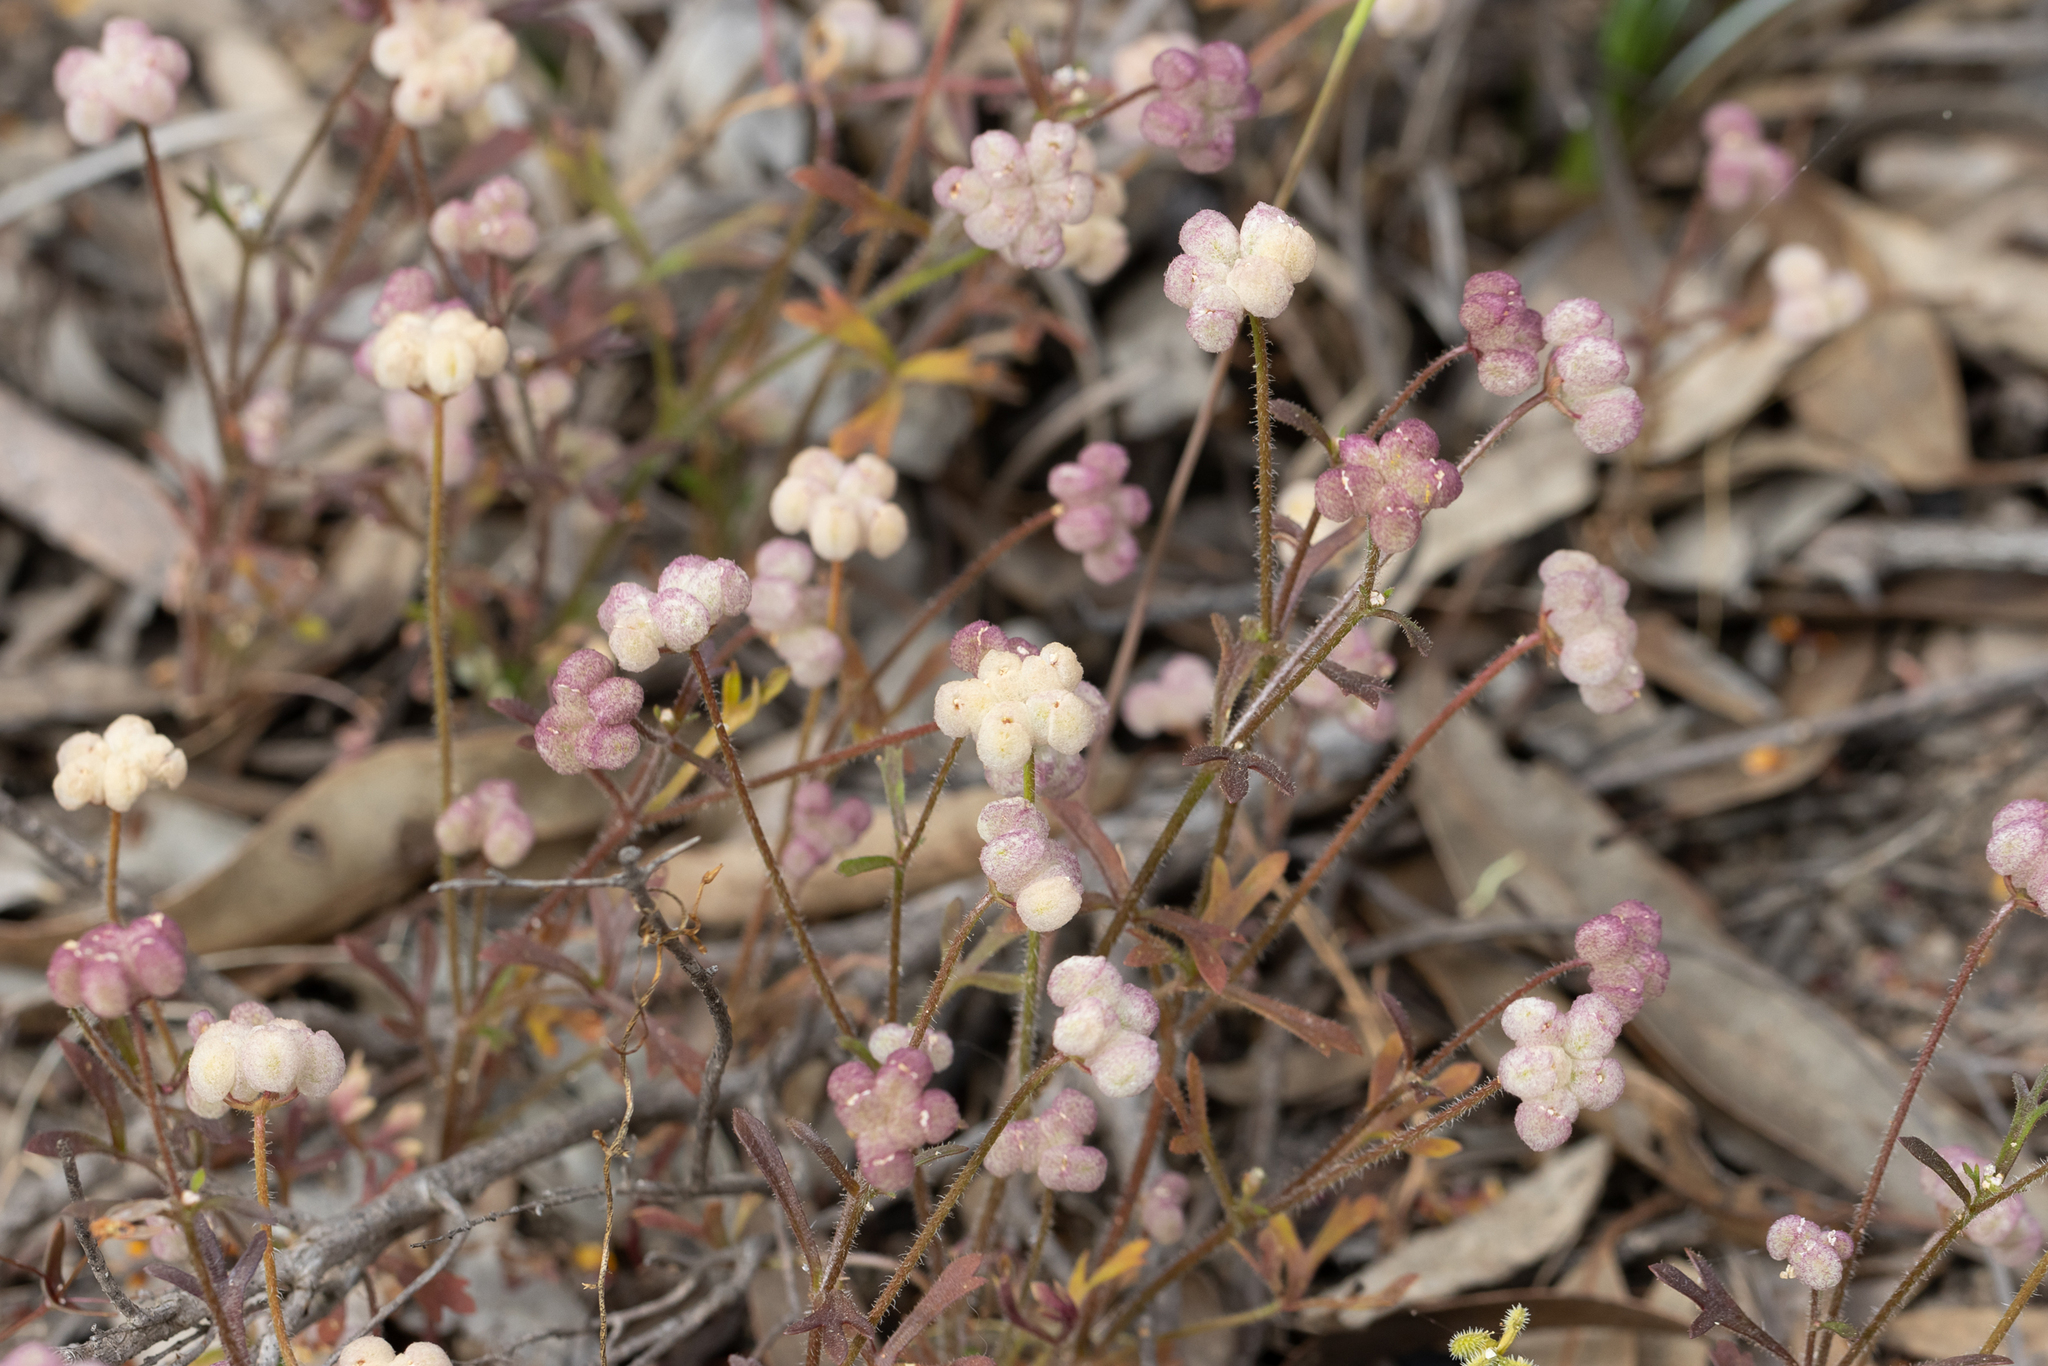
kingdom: Plantae
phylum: Tracheophyta
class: Magnoliopsida
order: Apiales
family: Araliaceae
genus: Trachymene
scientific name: Trachymene ornata
